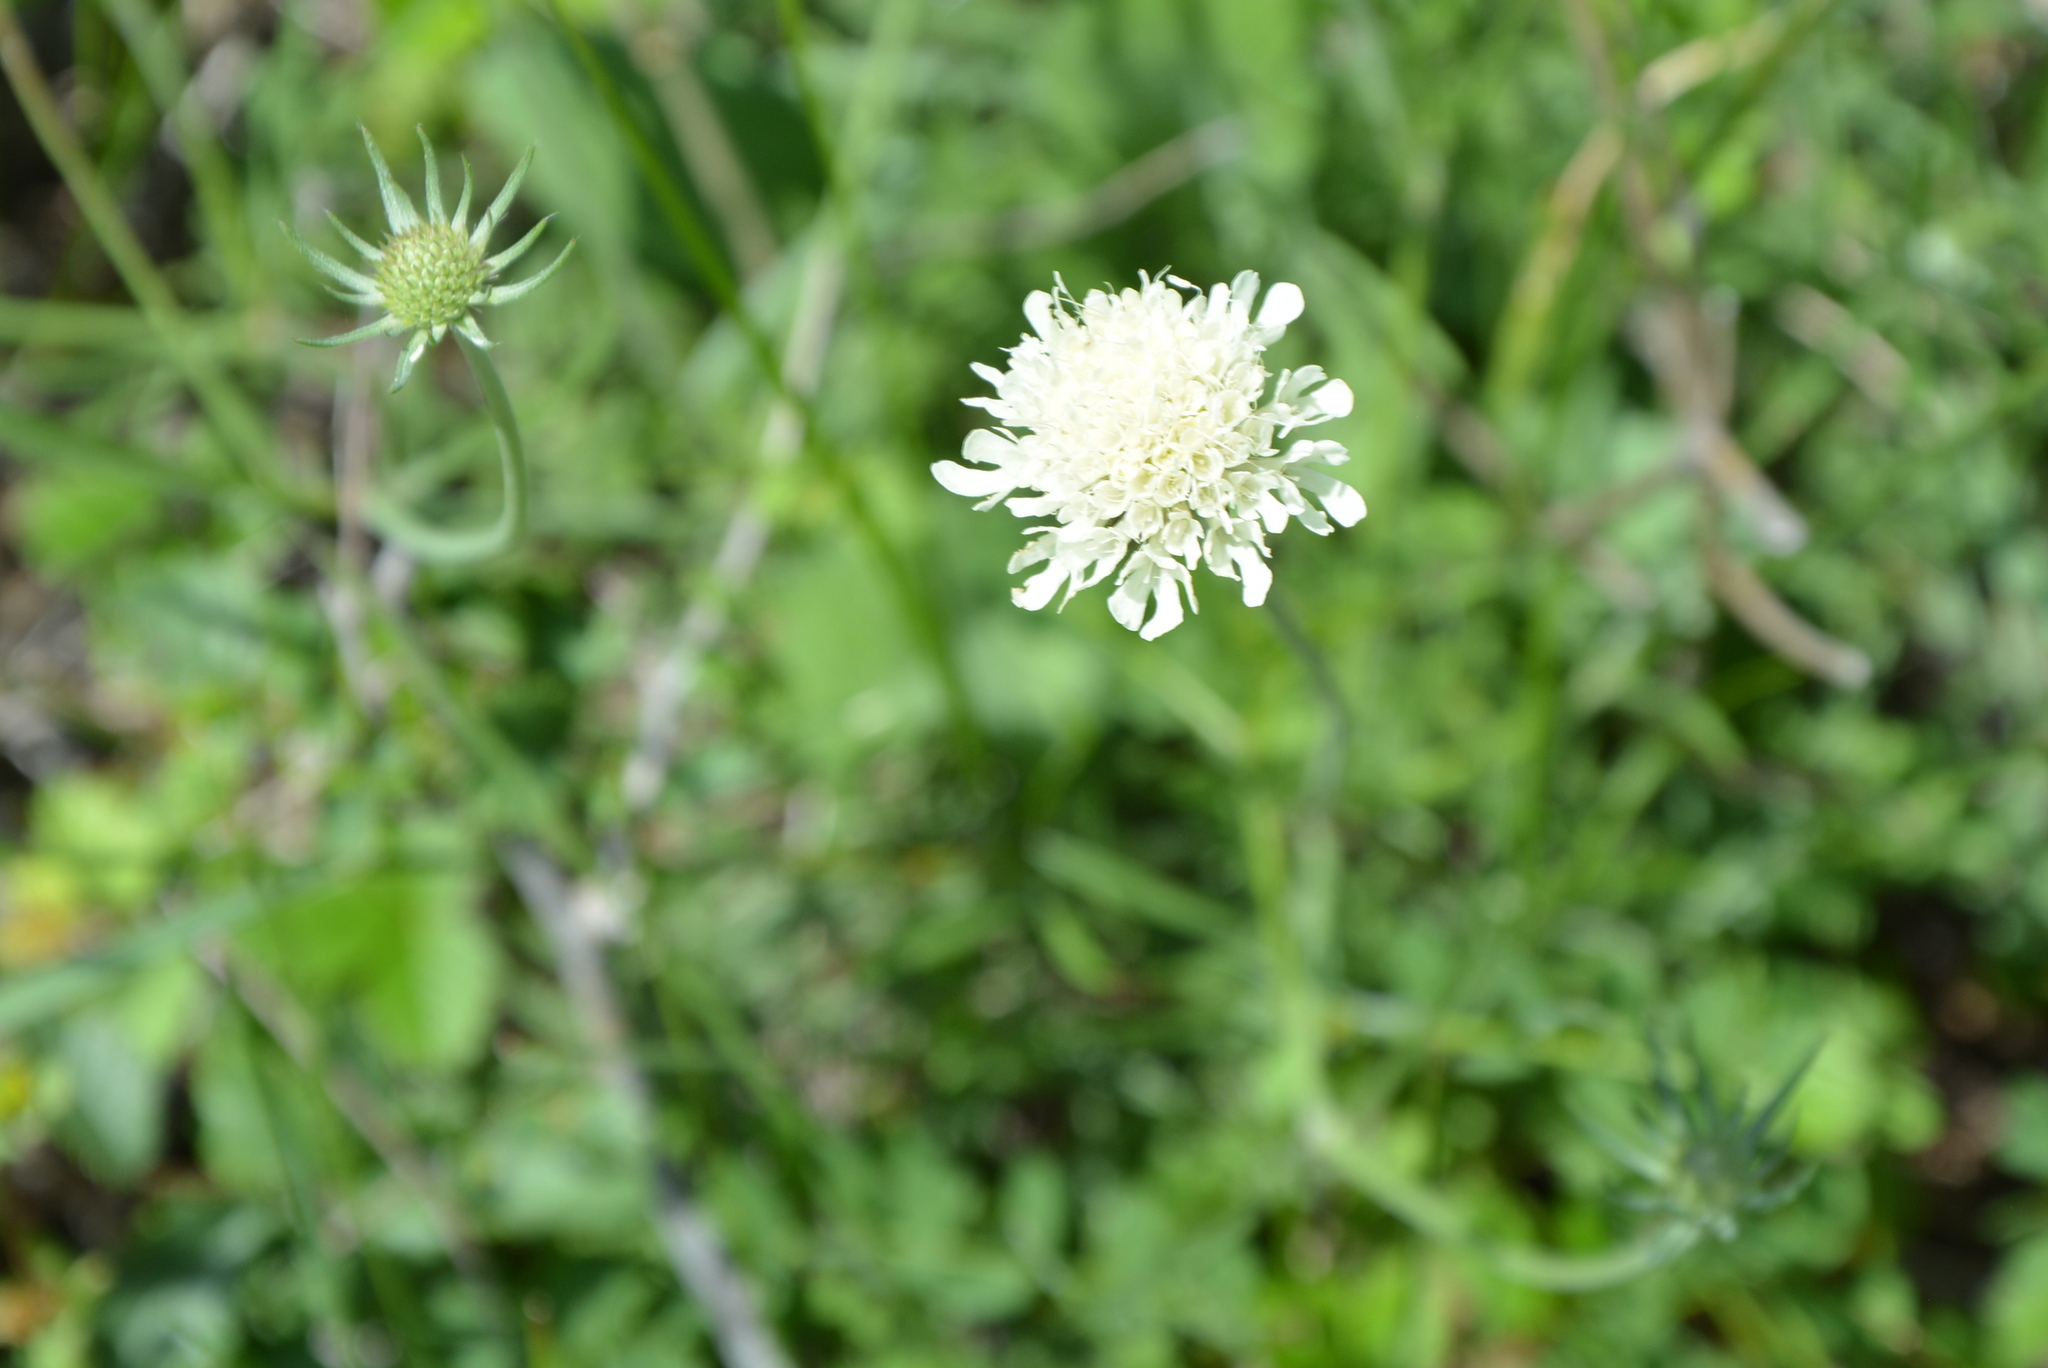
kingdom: Plantae
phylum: Tracheophyta
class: Magnoliopsida
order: Dipsacales
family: Caprifoliaceae
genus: Scabiosa
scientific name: Scabiosa ochroleuca
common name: Cream pincushions
